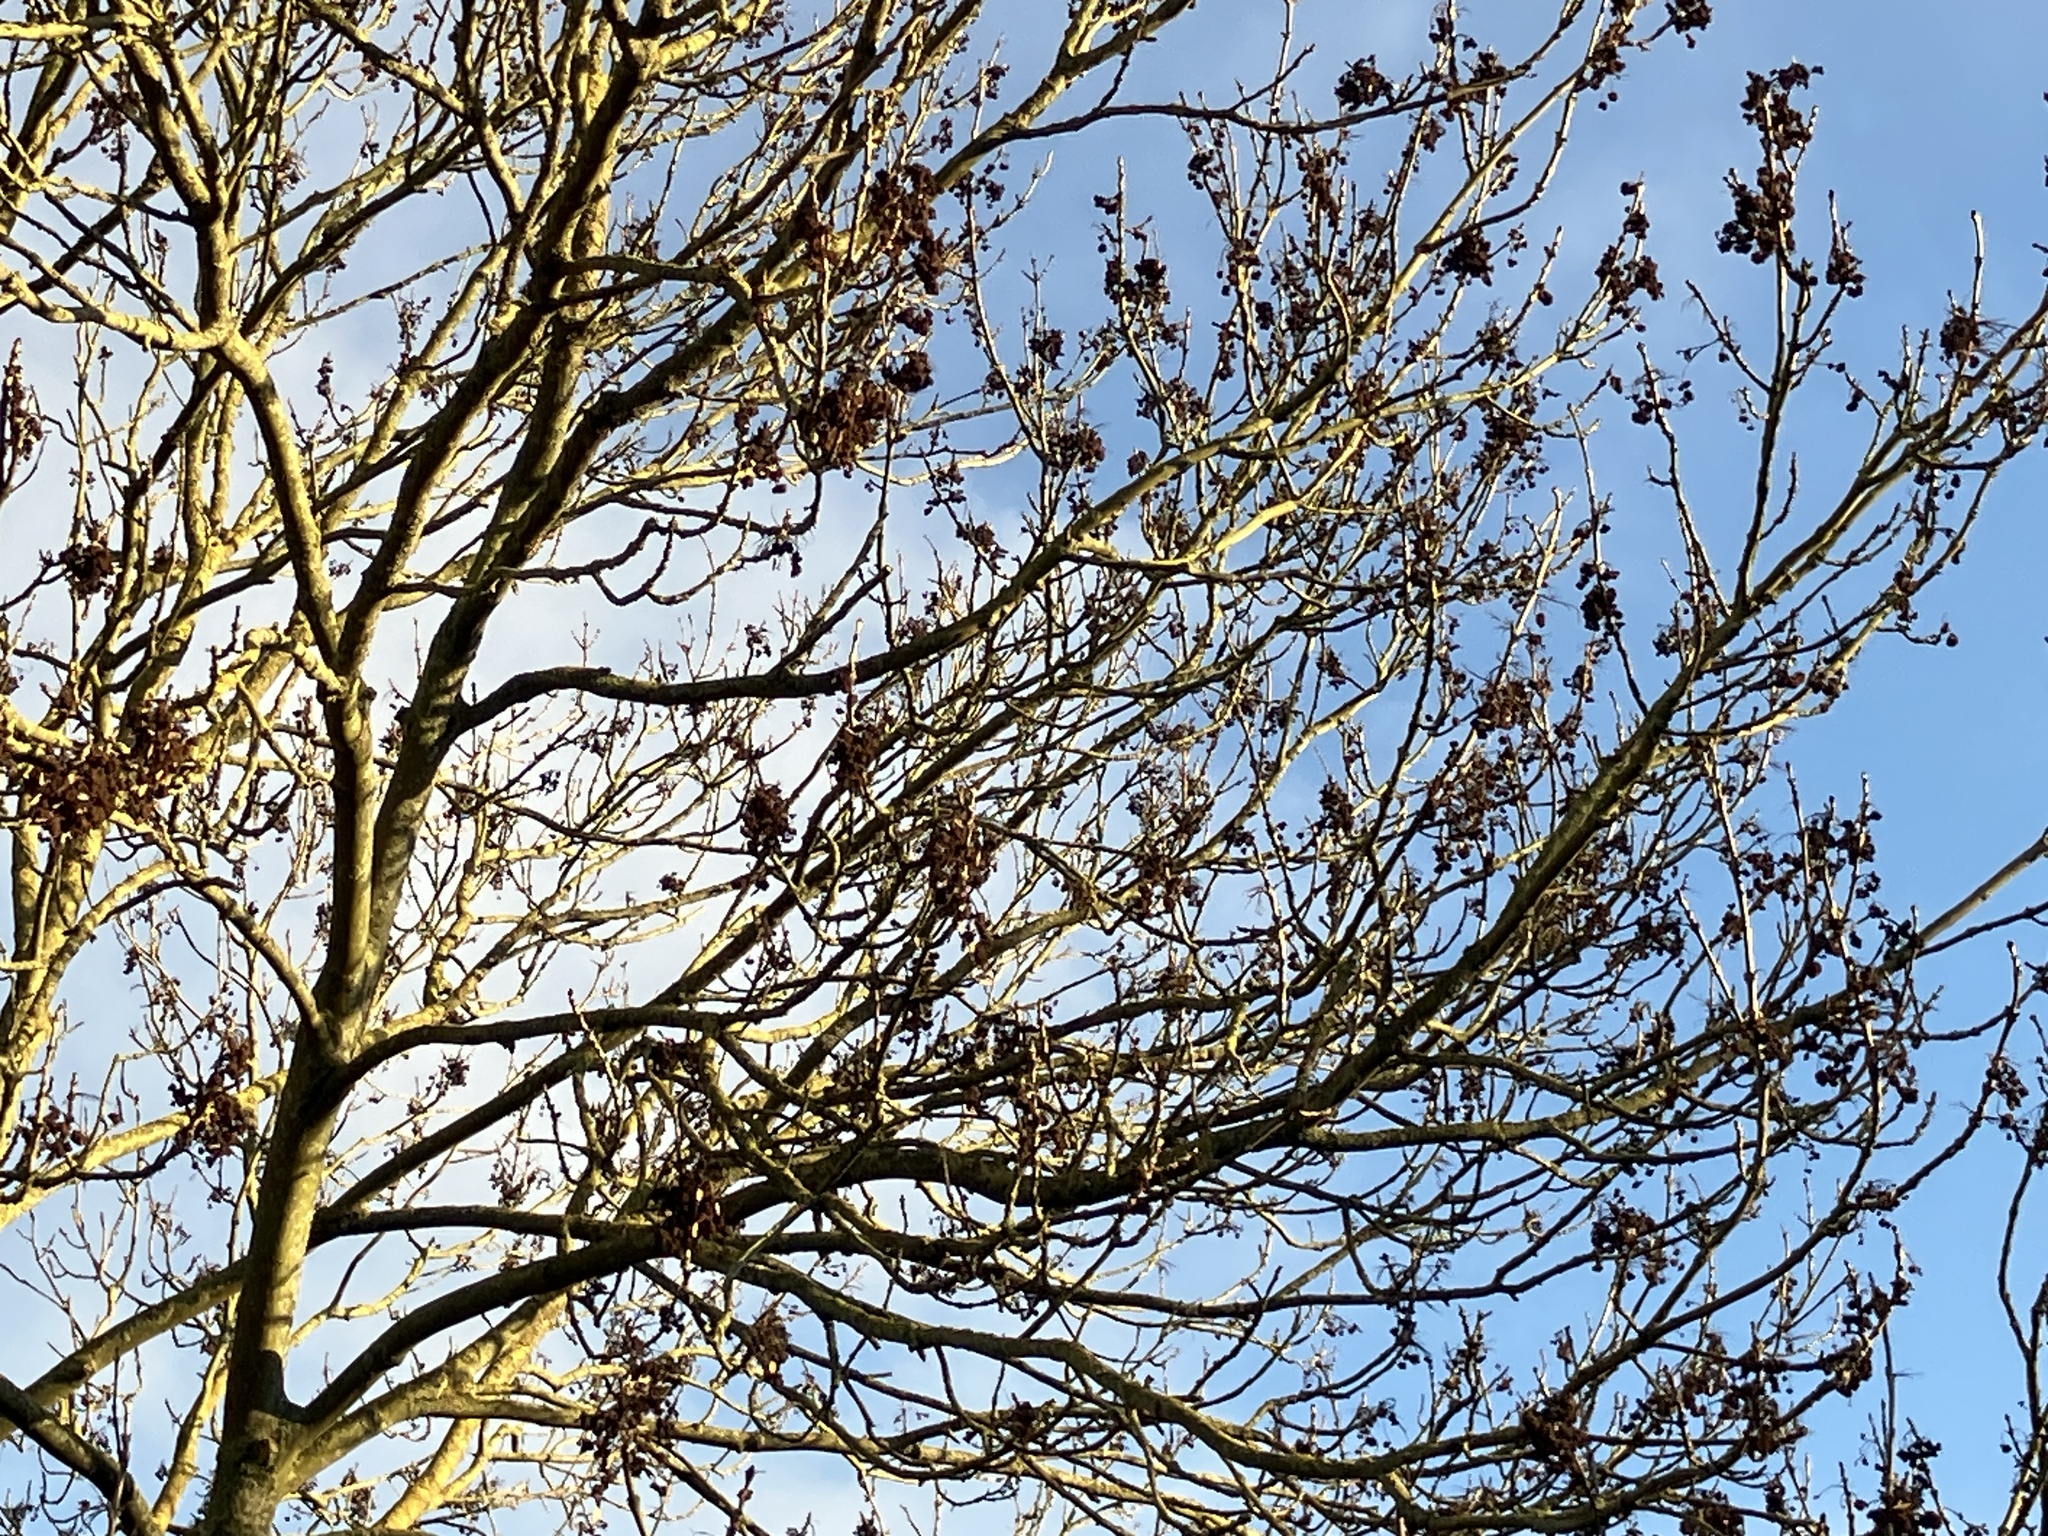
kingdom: Plantae
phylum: Tracheophyta
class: Magnoliopsida
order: Lamiales
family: Oleaceae
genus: Fraxinus
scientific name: Fraxinus excelsior
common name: European ash
